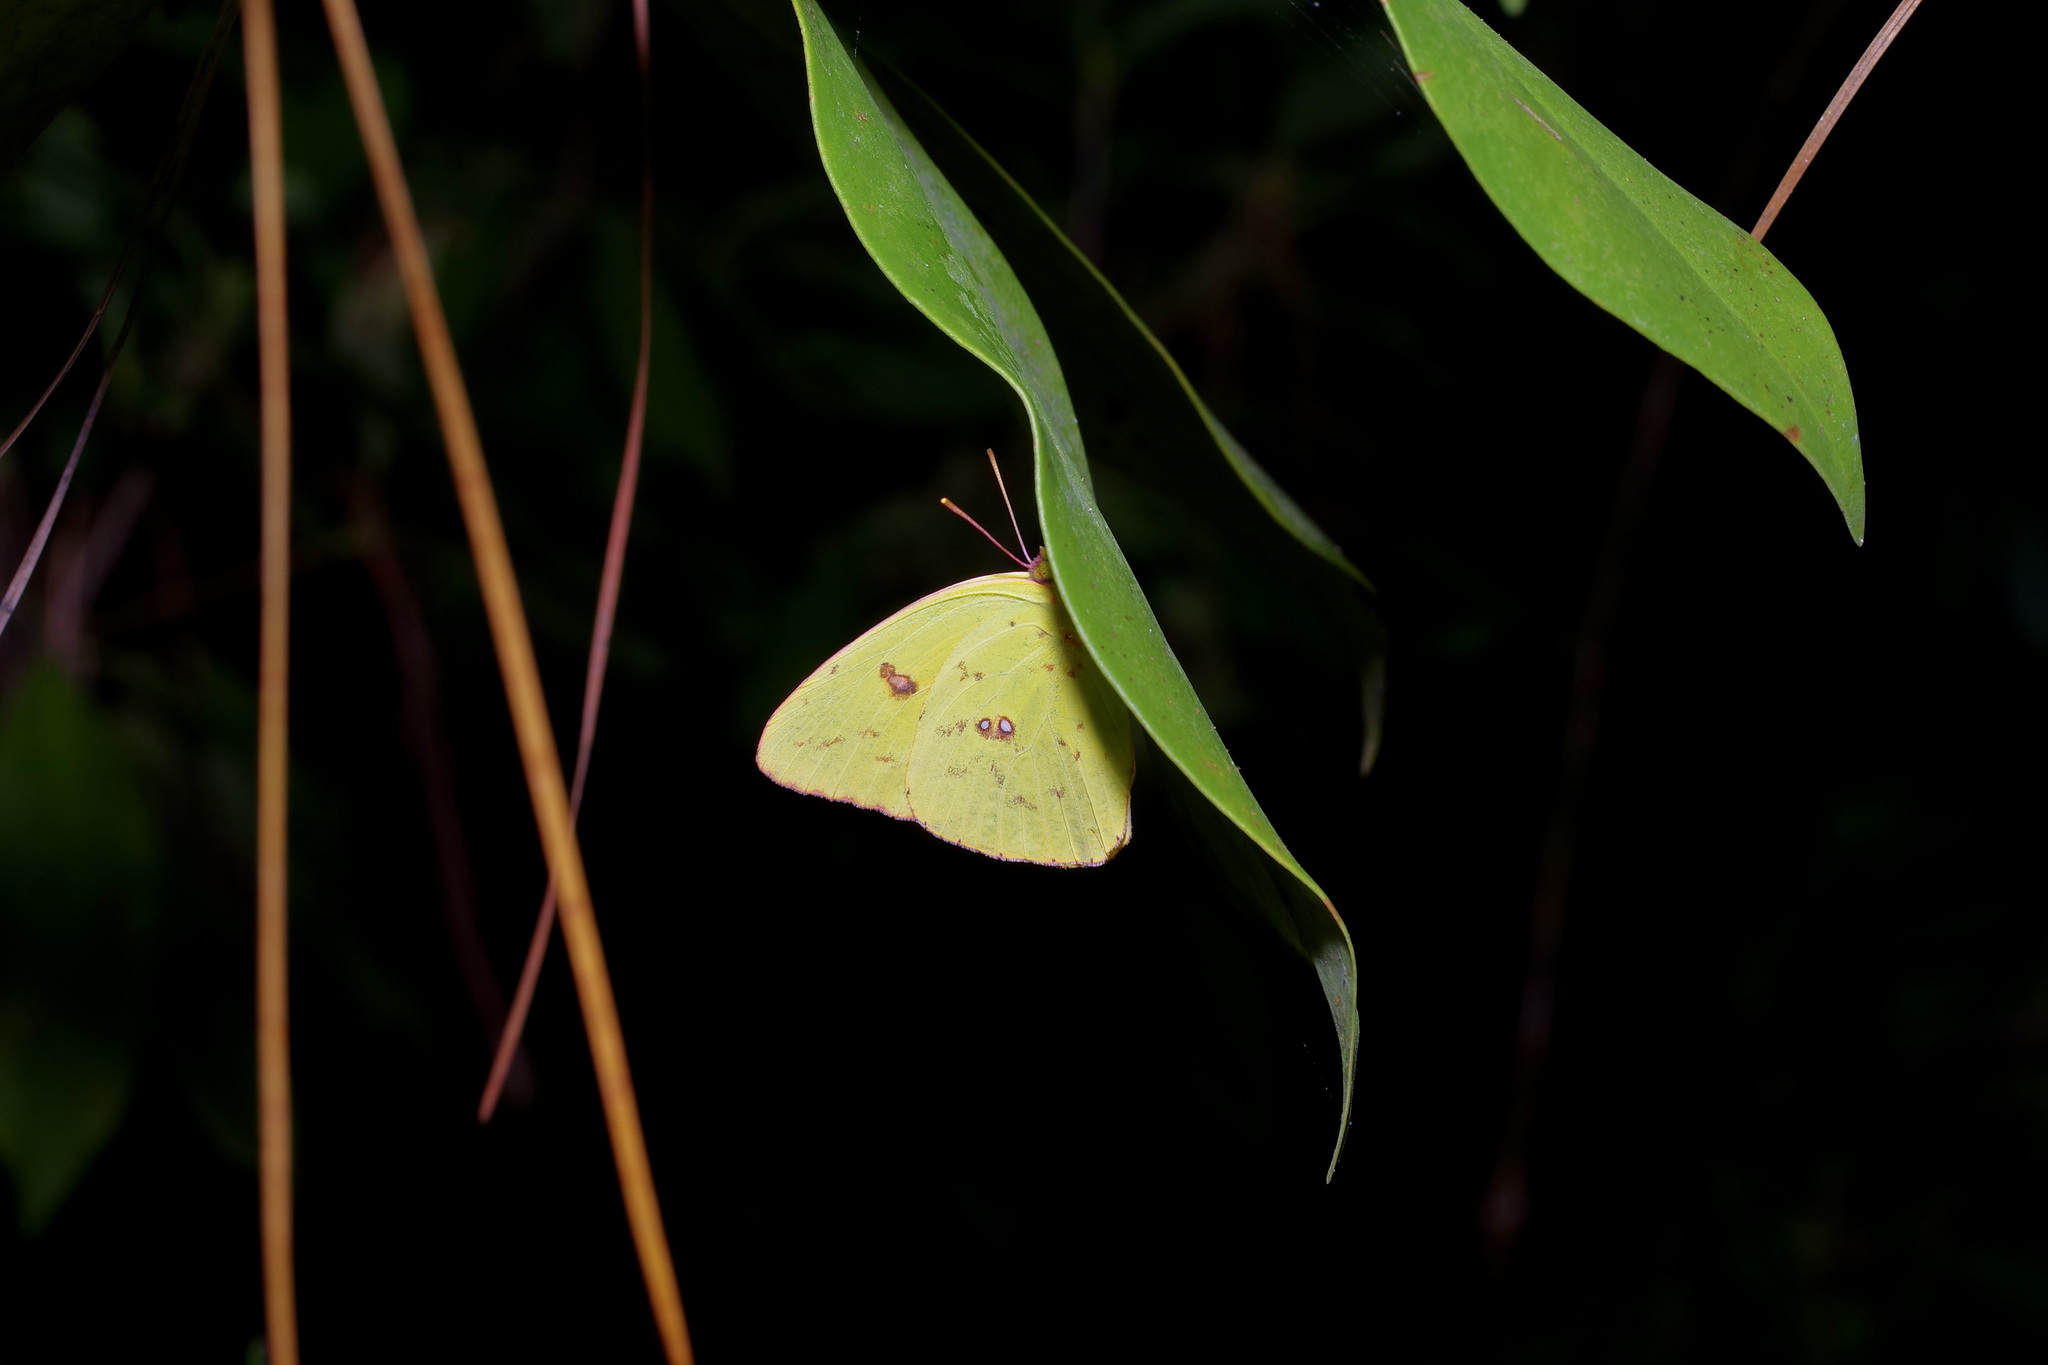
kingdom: Animalia
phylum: Arthropoda
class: Insecta
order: Lepidoptera
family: Pieridae
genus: Phoebis
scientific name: Phoebis sennae
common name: Cloudless sulphur
